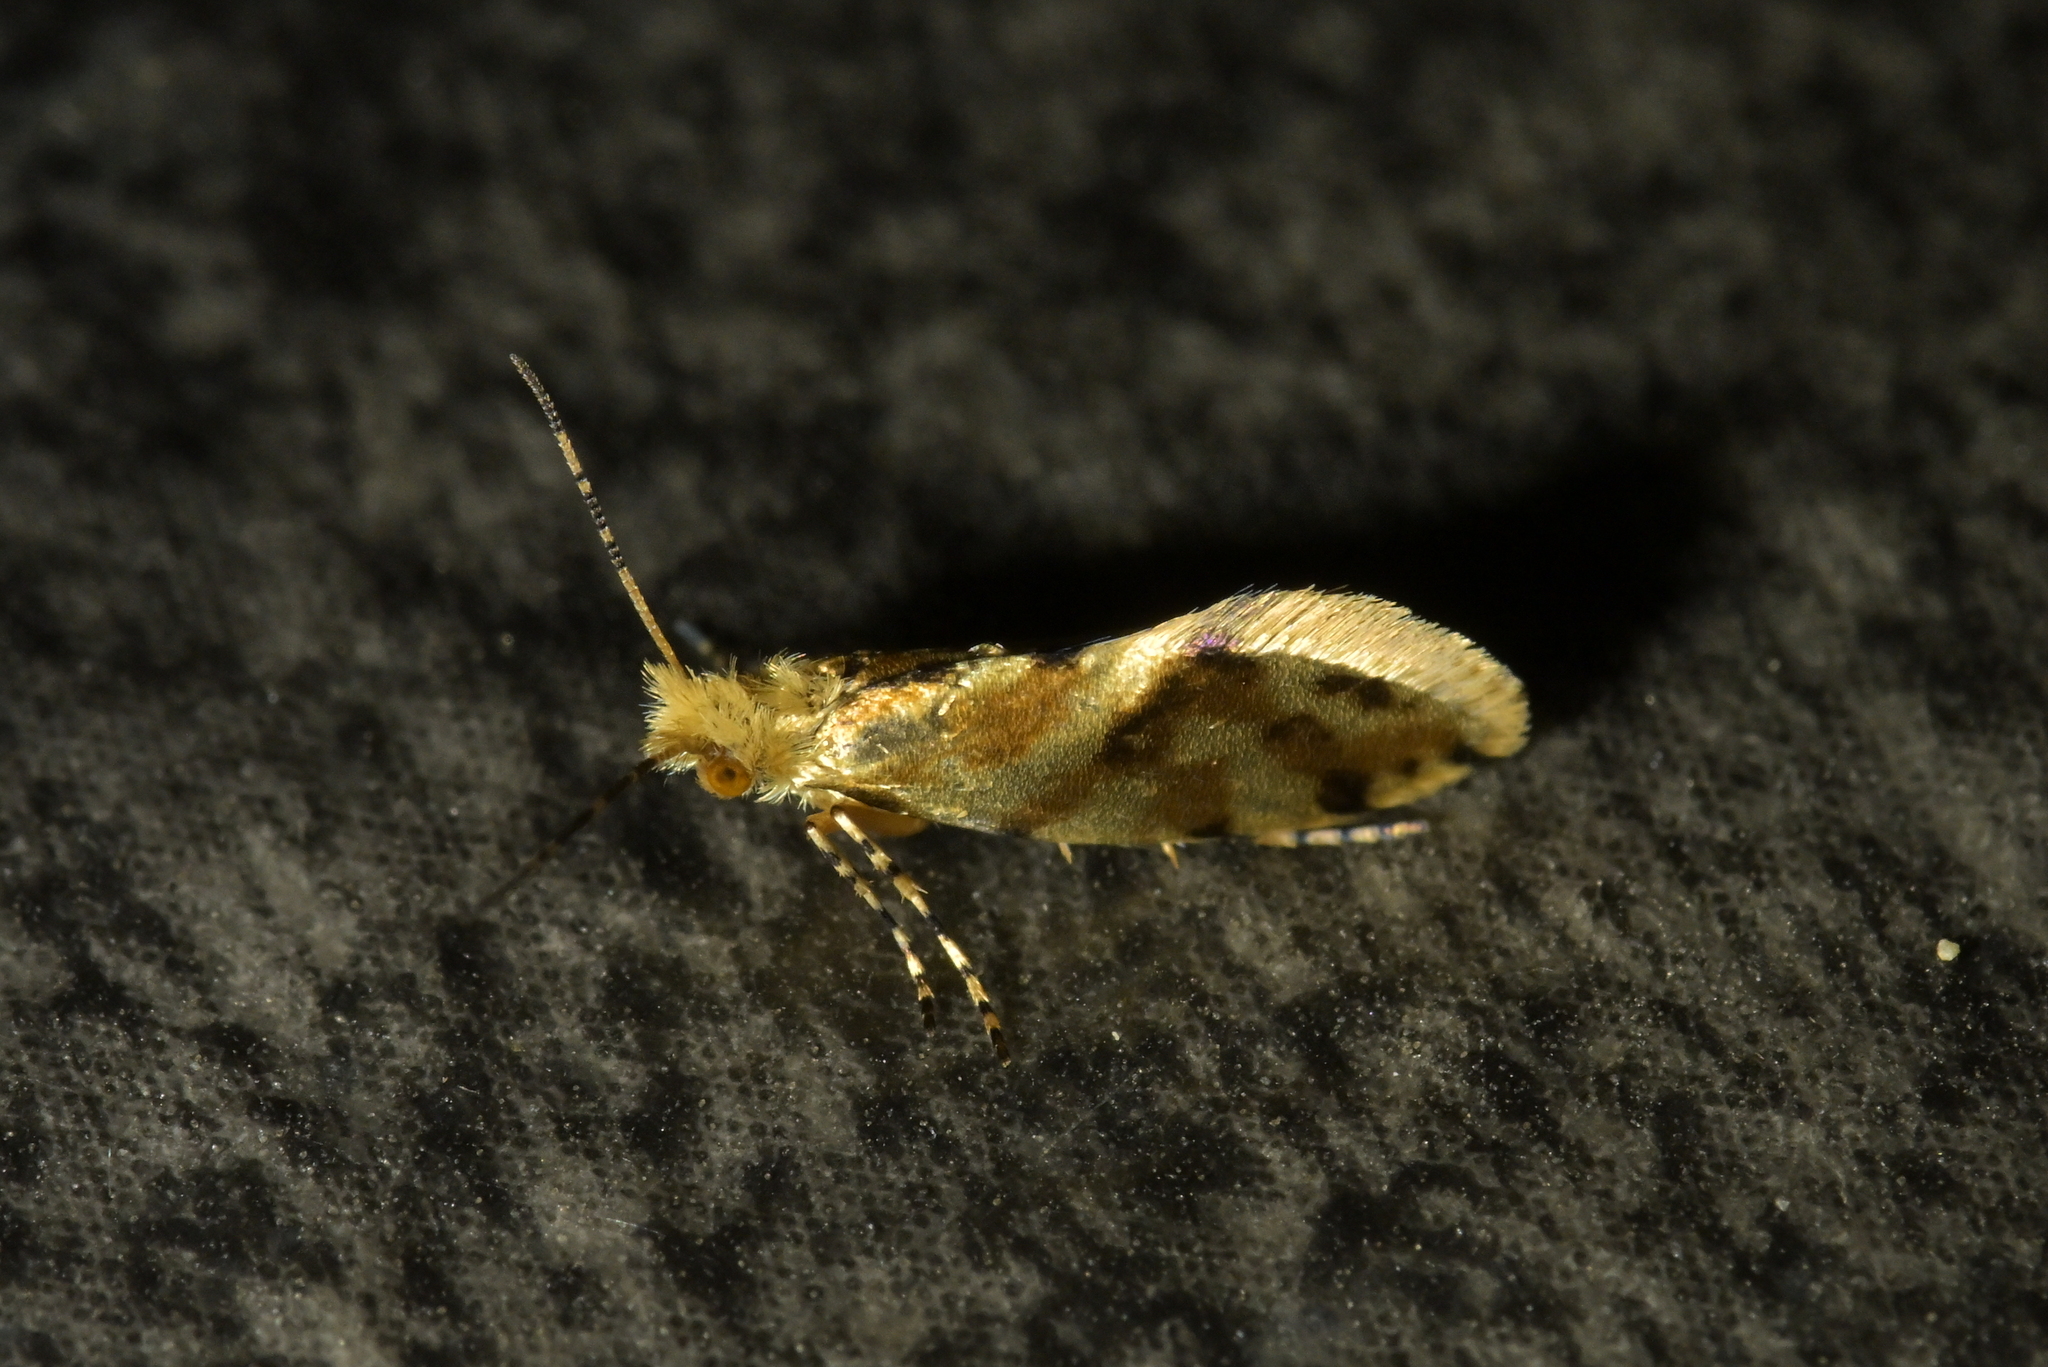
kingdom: Animalia
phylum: Arthropoda
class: Insecta
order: Lepidoptera
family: Micropterigidae
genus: Sabatinca
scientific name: Sabatinca chalcophanes
